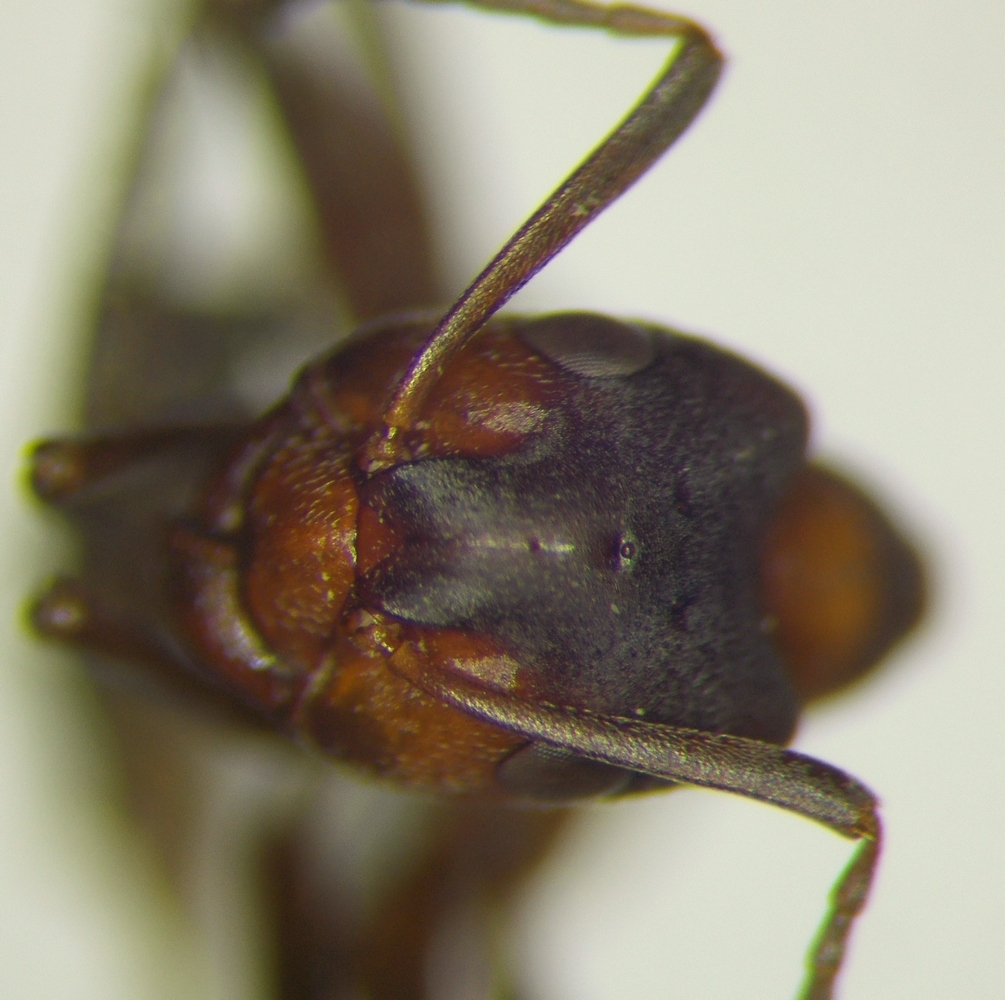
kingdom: Animalia
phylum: Arthropoda
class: Insecta
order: Hymenoptera
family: Formicidae
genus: Formica
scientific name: Formica foreli
